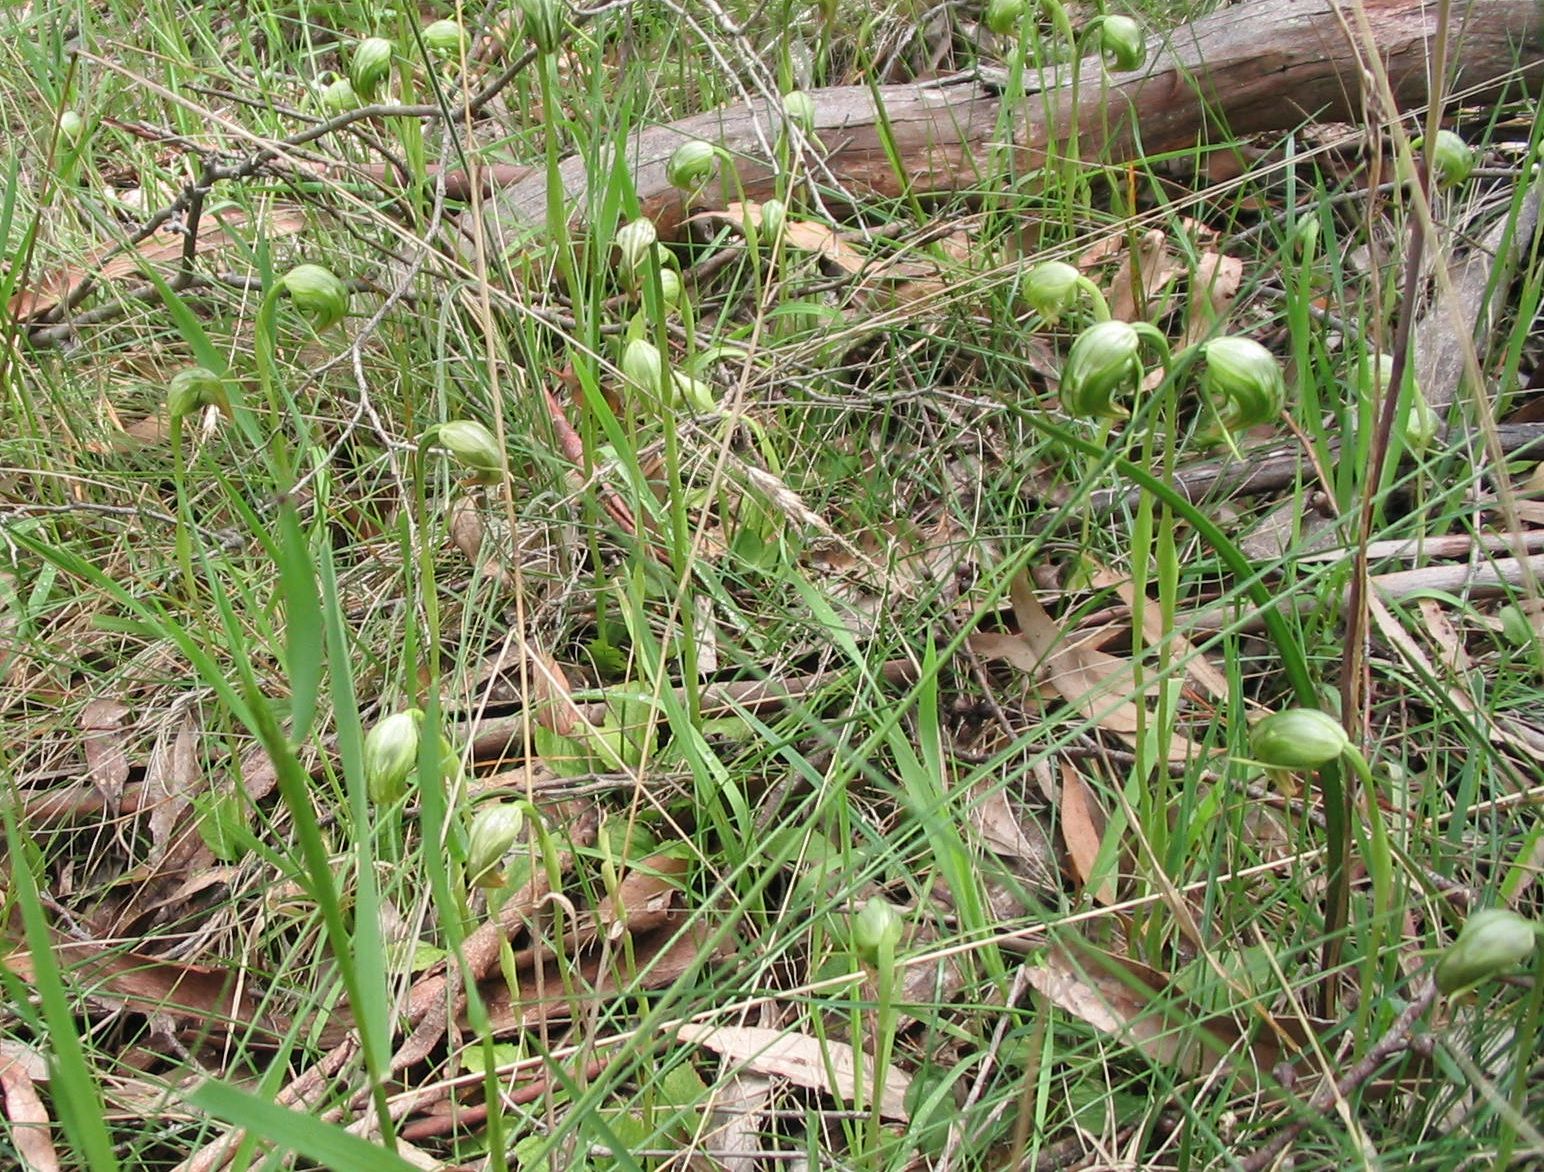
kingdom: Plantae
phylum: Tracheophyta
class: Liliopsida
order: Asparagales
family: Orchidaceae
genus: Pterostylis
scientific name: Pterostylis nutans
